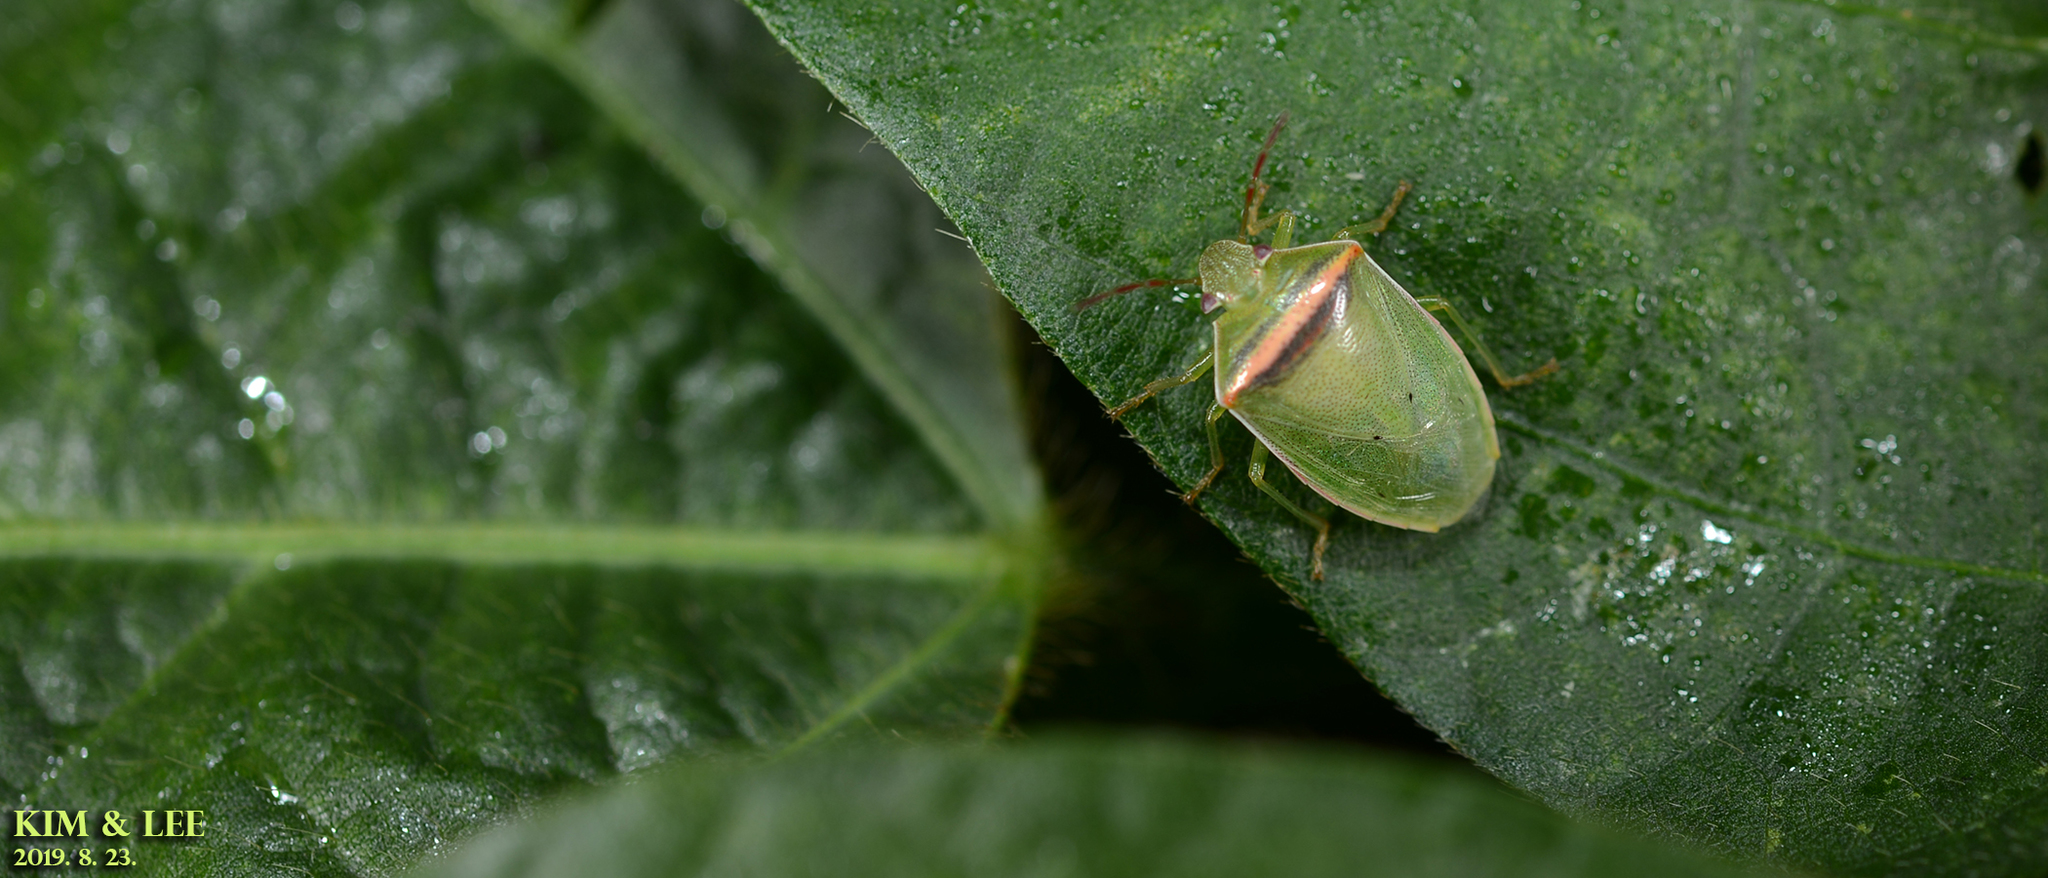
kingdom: Animalia
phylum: Arthropoda
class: Insecta
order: Hemiptera
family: Pentatomidae
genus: Piezodorus
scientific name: Piezodorus hybneri
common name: Stink bug
